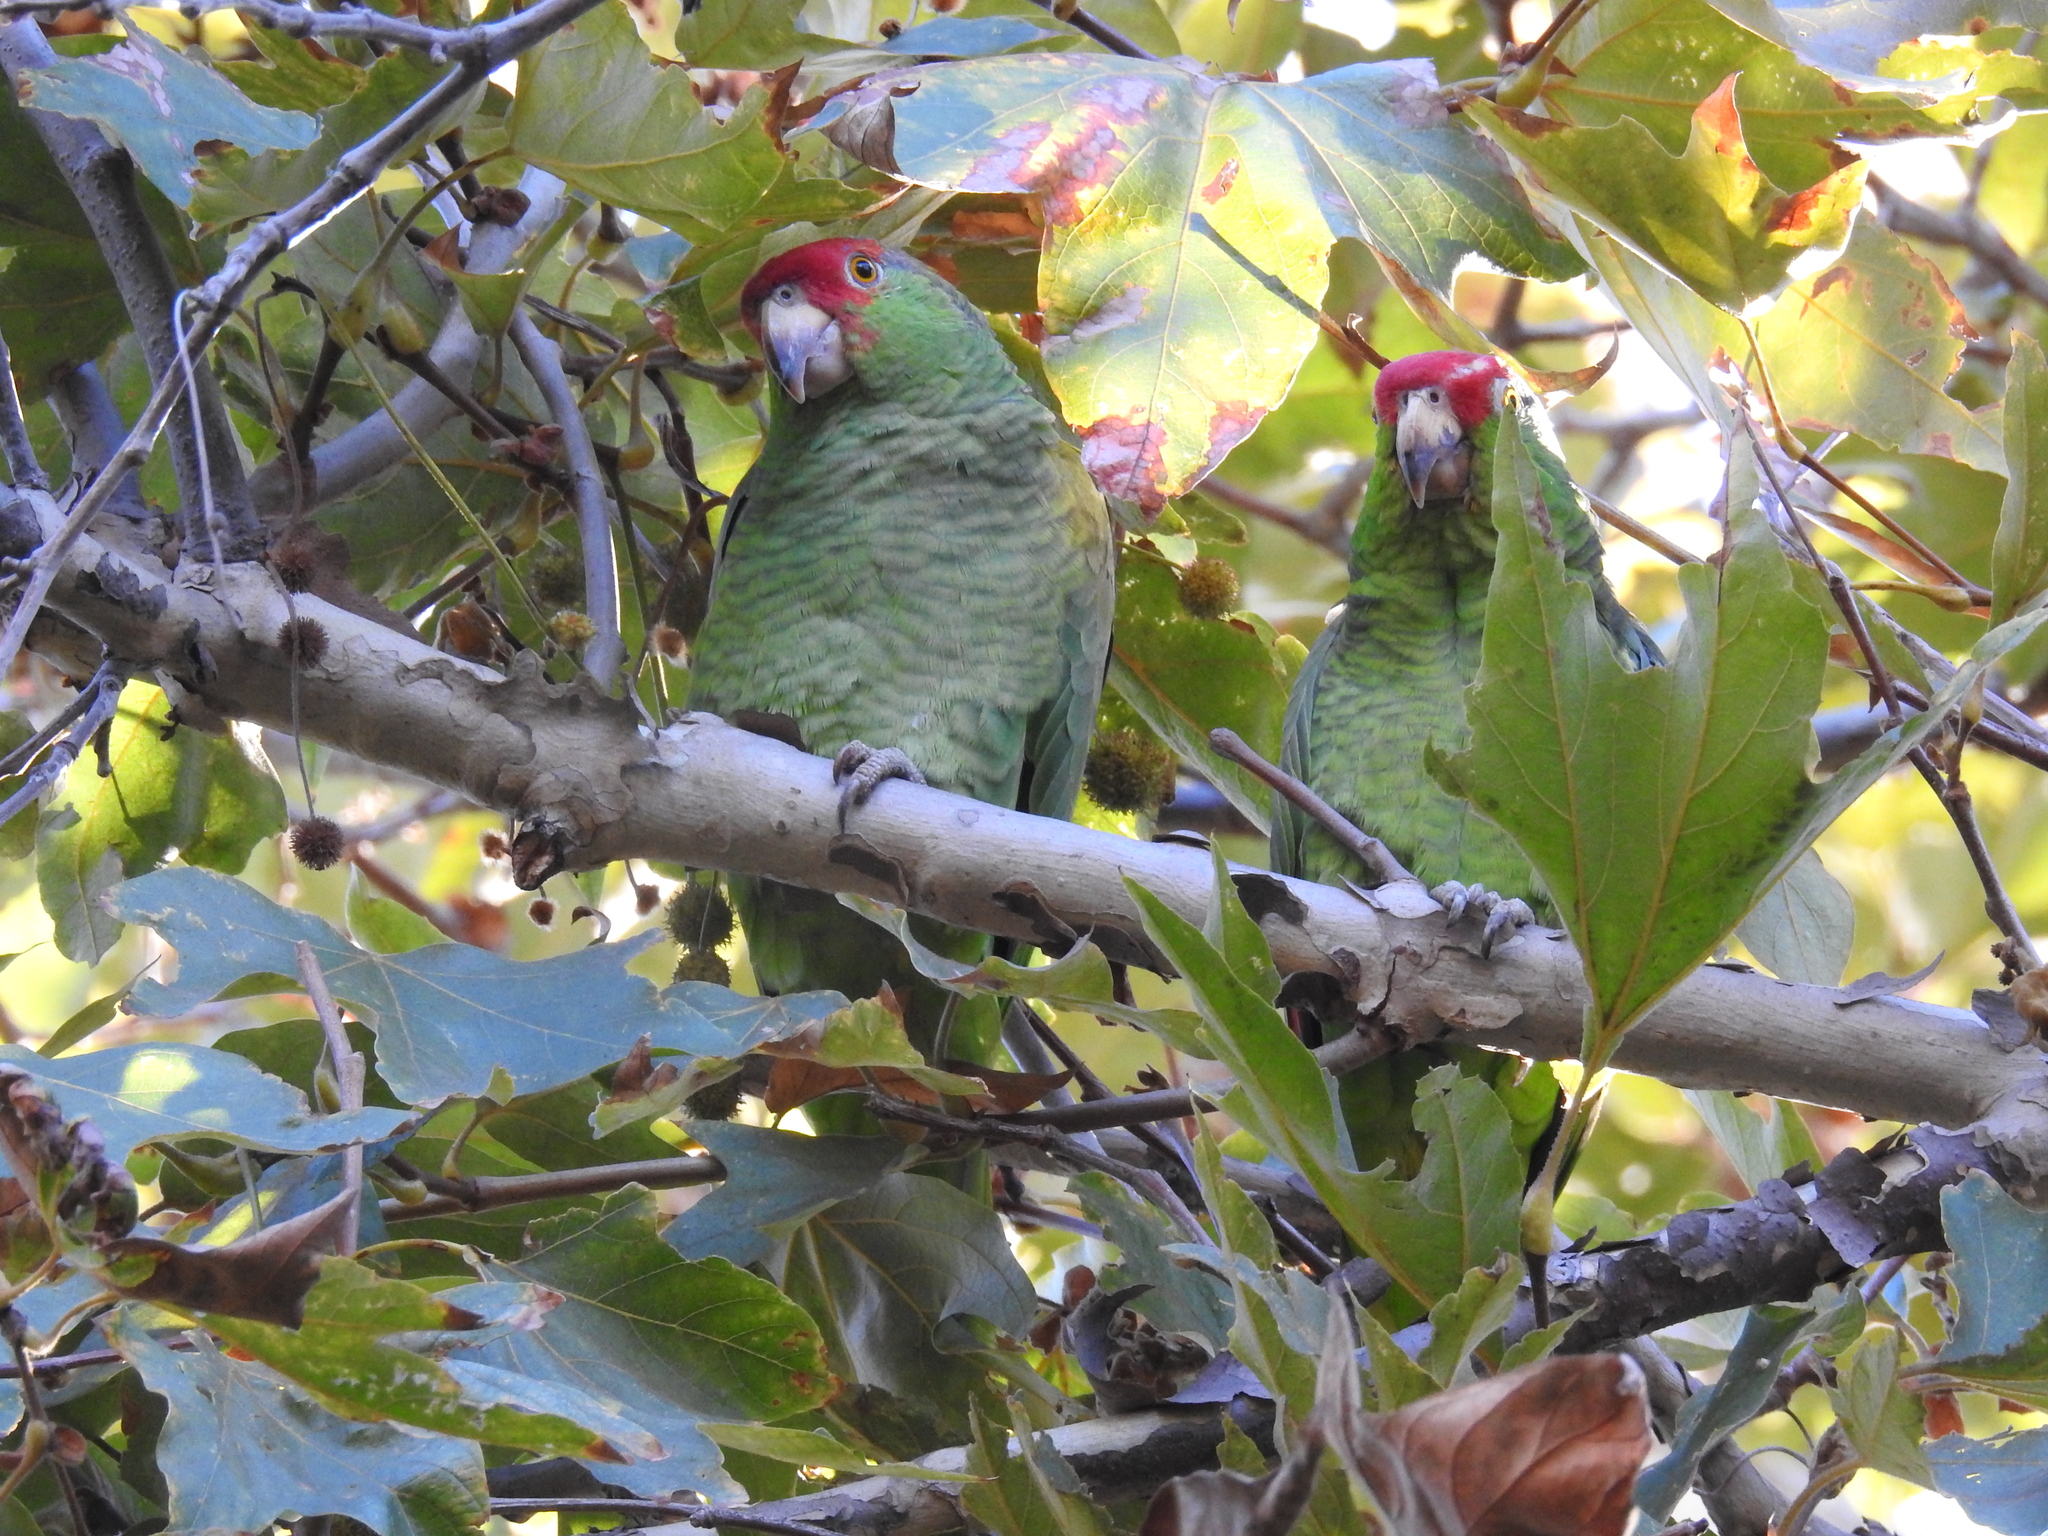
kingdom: Animalia
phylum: Chordata
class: Aves
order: Psittaciformes
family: Psittacidae
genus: Amazona
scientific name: Amazona viridigenalis
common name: Red-crowned amazon
